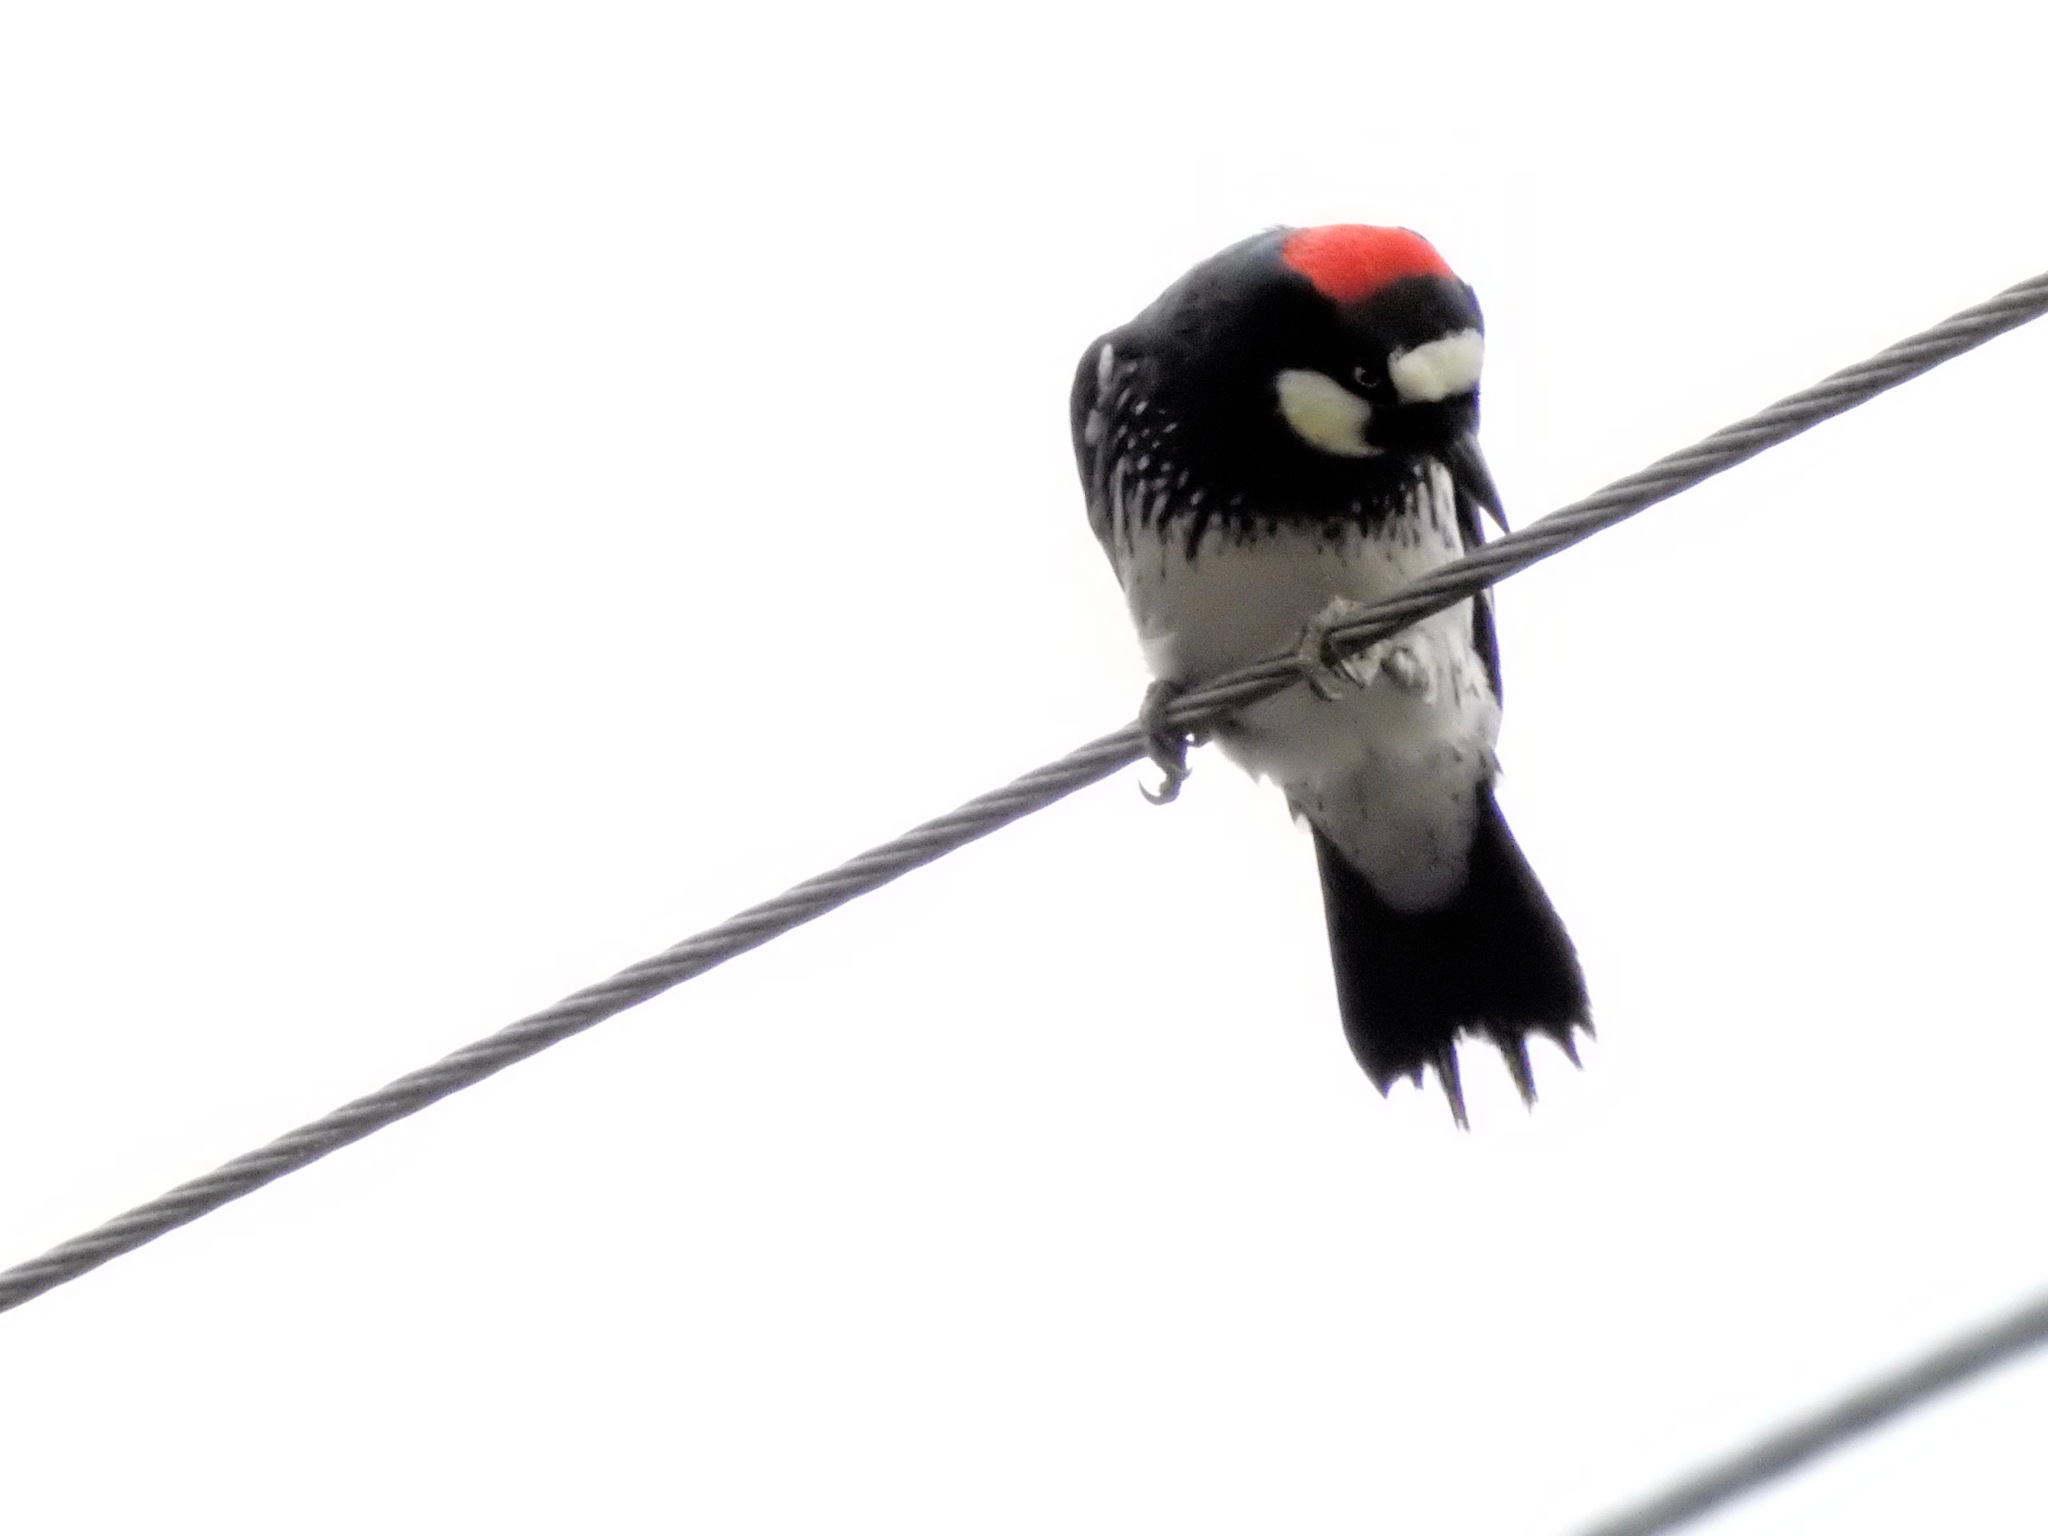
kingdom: Animalia
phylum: Chordata
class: Aves
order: Piciformes
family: Picidae
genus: Melanerpes
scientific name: Melanerpes formicivorus
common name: Acorn woodpecker
